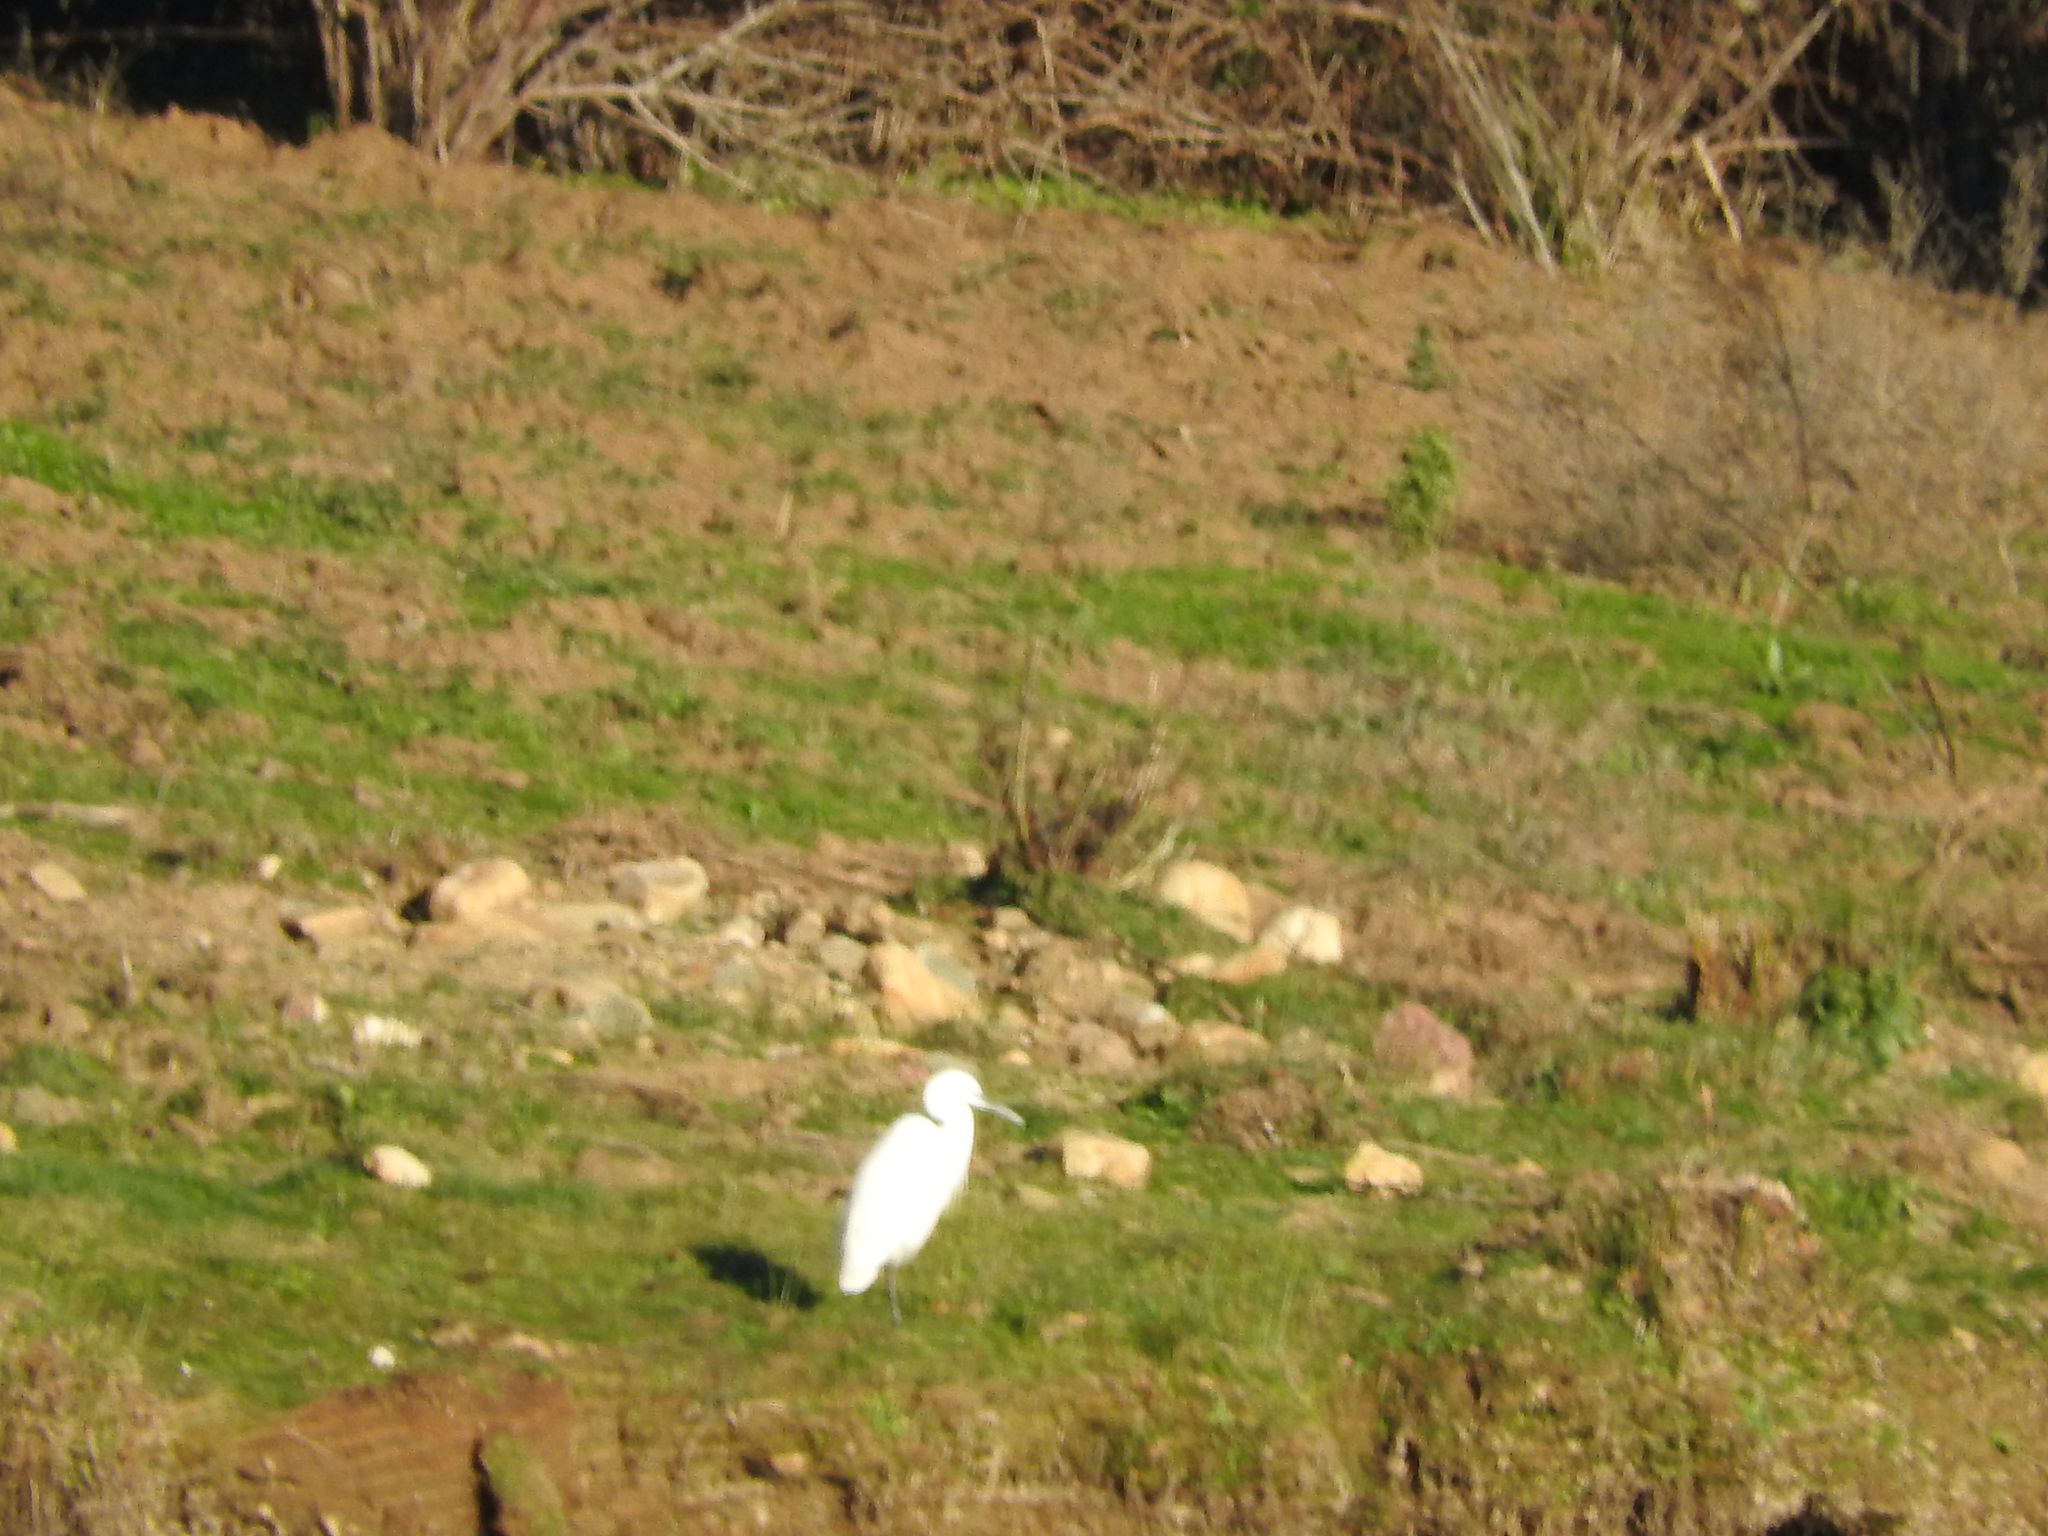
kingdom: Animalia
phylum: Chordata
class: Aves
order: Pelecaniformes
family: Ardeidae
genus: Egretta
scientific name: Egretta garzetta
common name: Little egret
